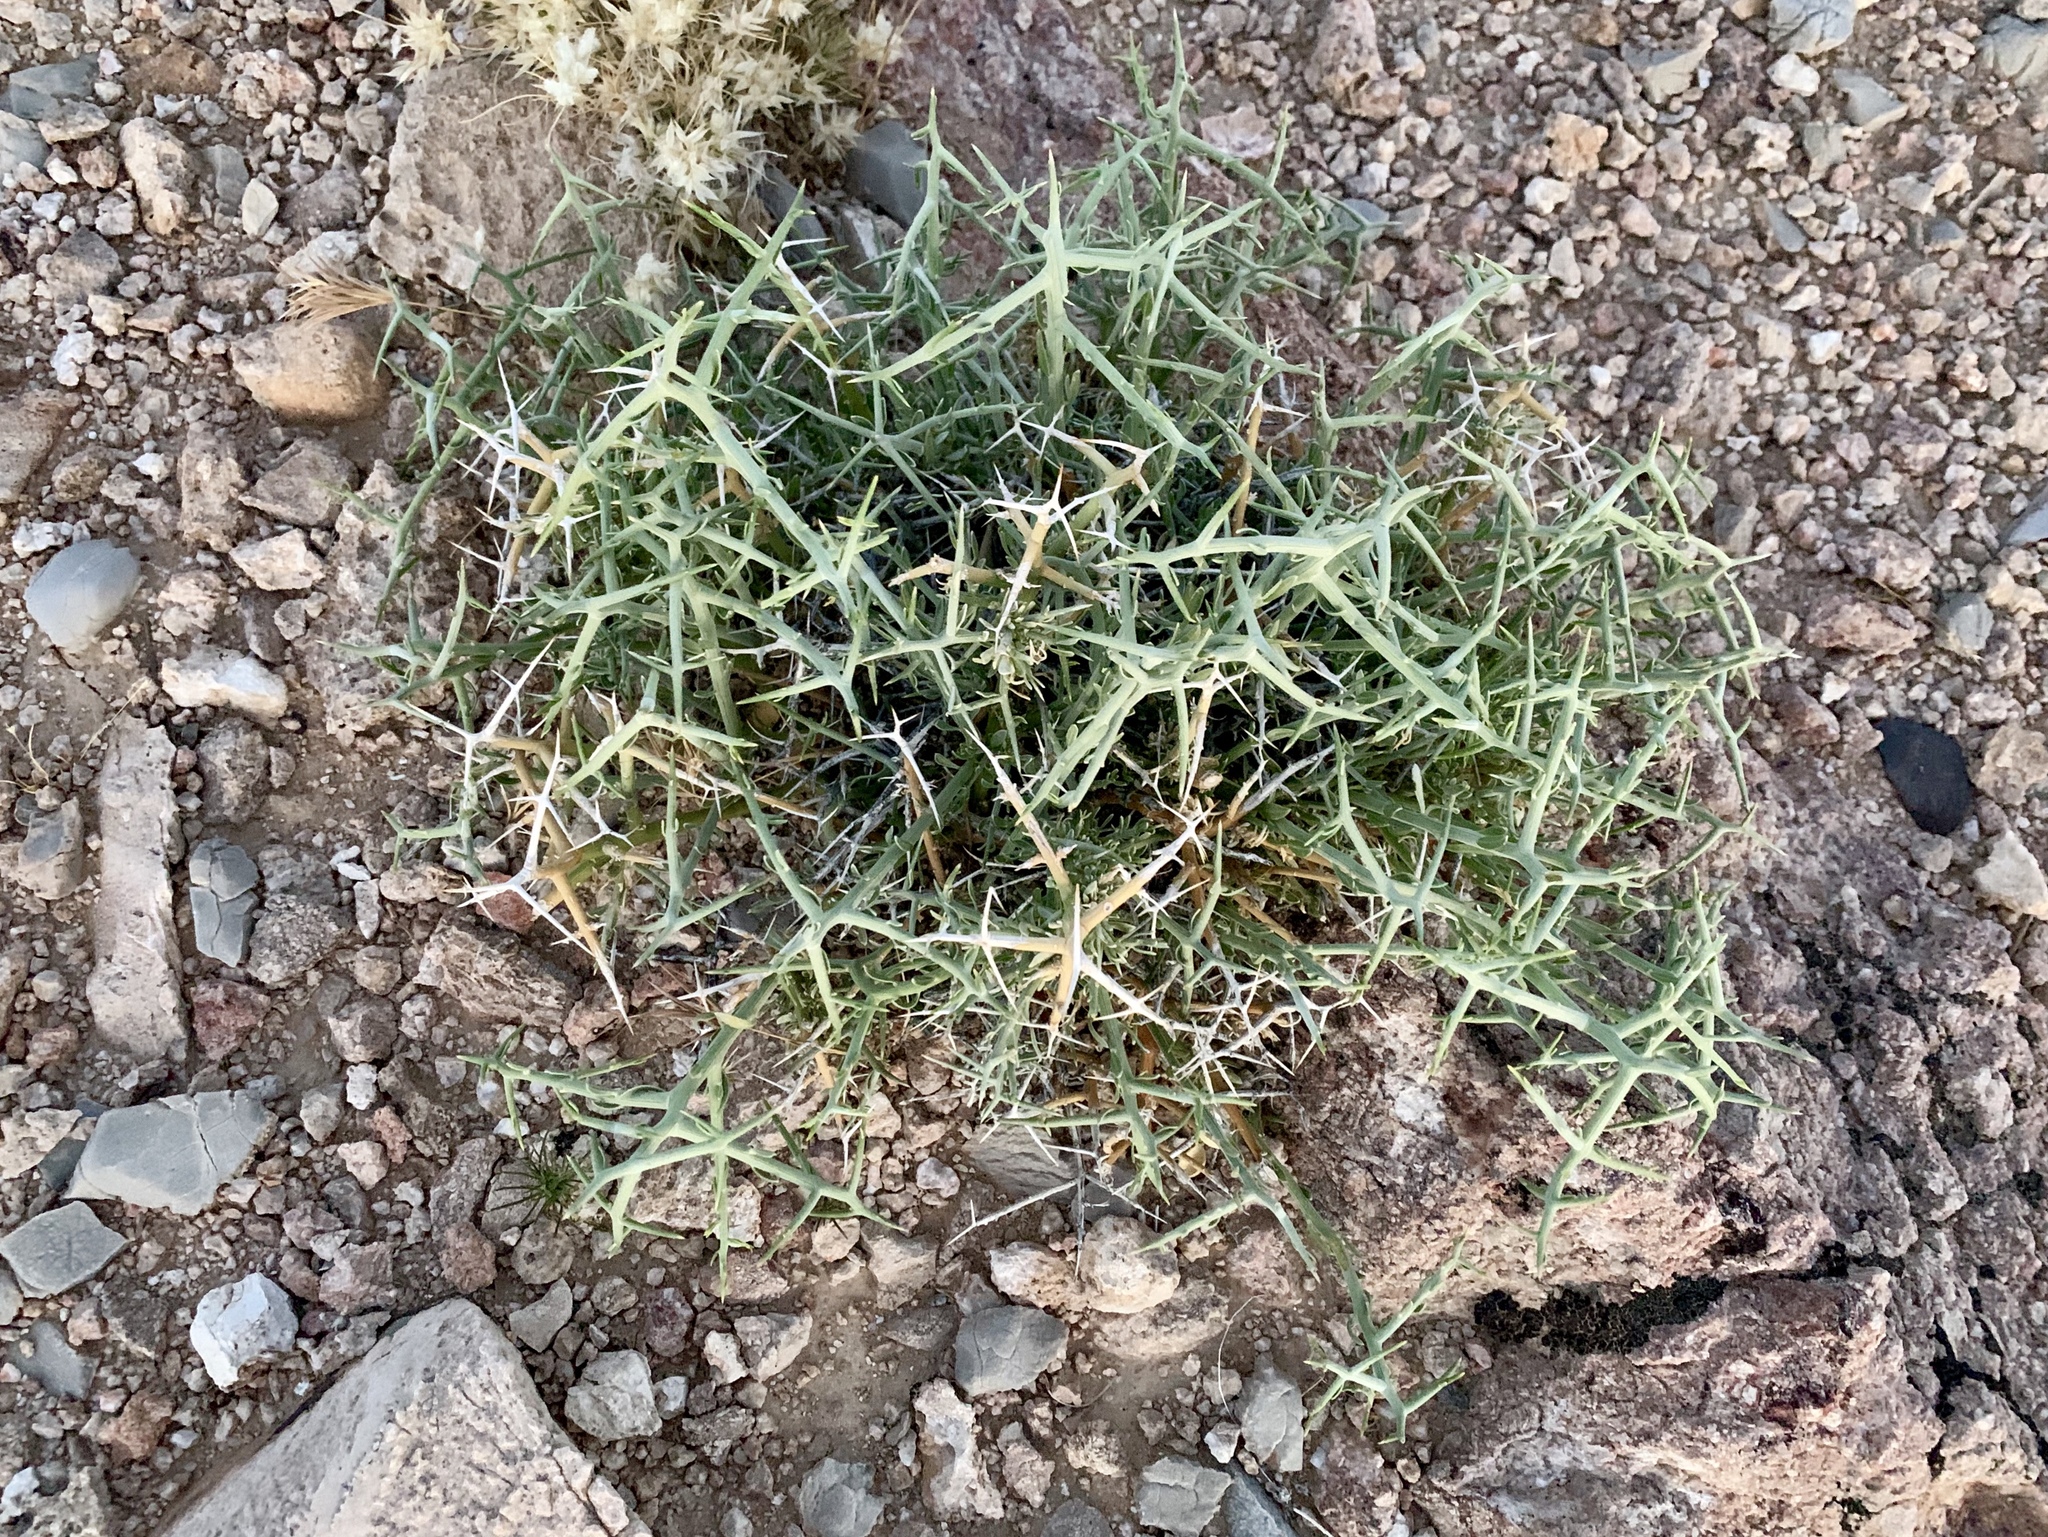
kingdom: Plantae
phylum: Tracheophyta
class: Magnoliopsida
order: Lamiales
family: Oleaceae
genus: Menodora
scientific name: Menodora spinescens
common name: Spiny menodora
